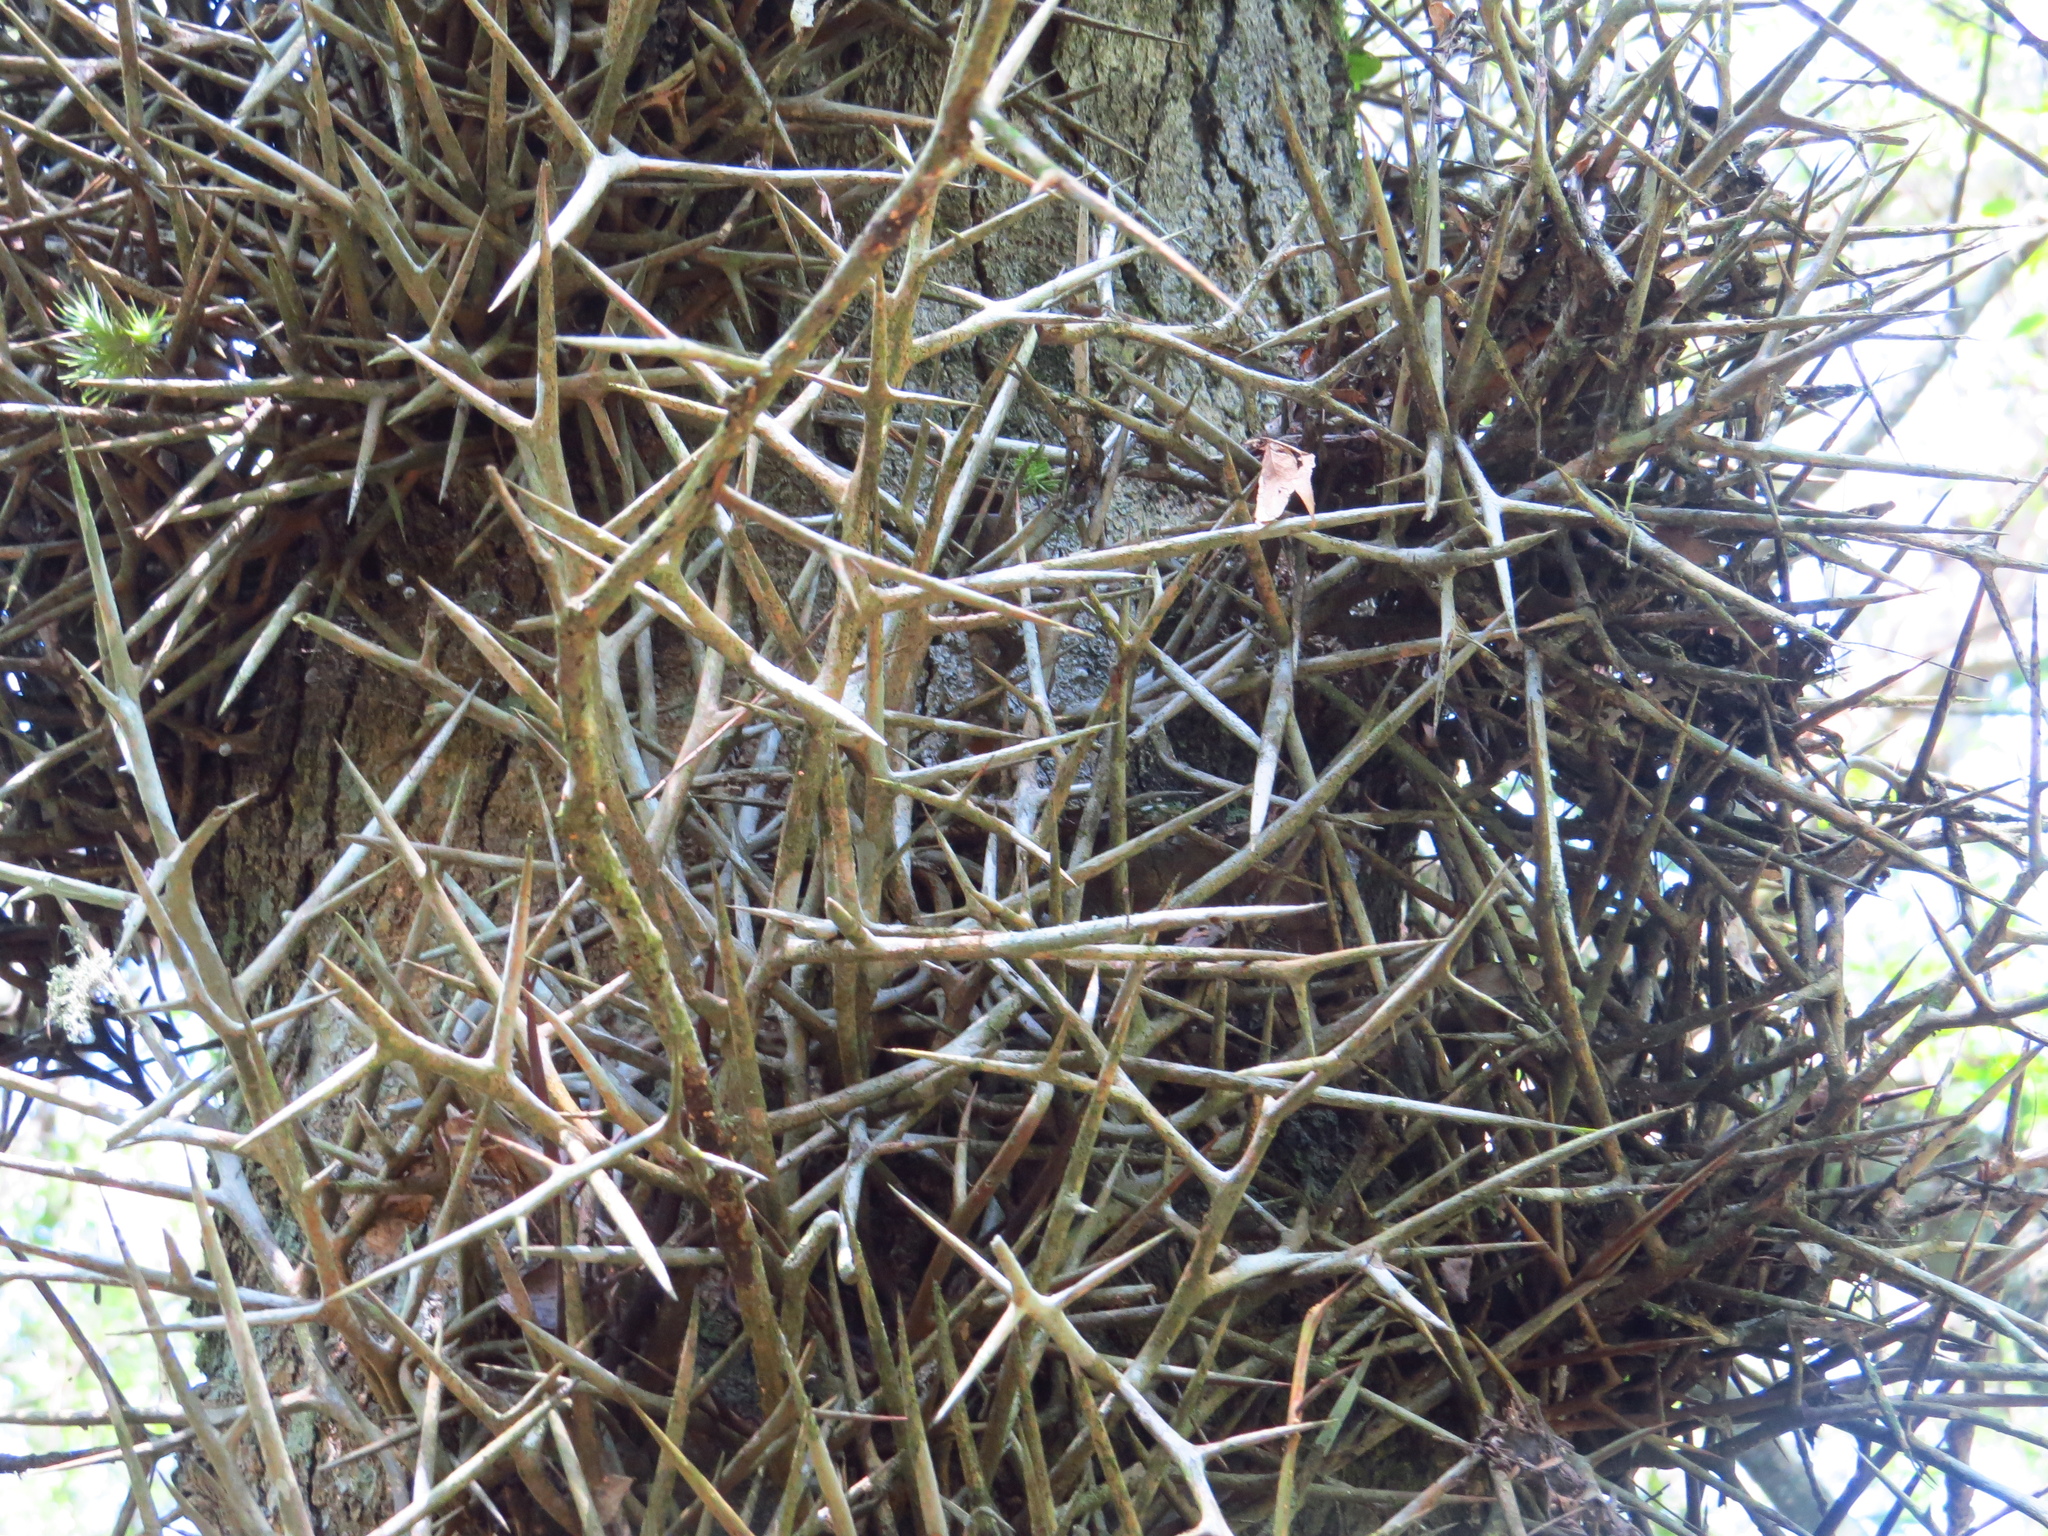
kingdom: Plantae
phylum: Tracheophyta
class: Magnoliopsida
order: Fabales
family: Fabaceae
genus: Gleditsia
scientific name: Gleditsia amorphoides
